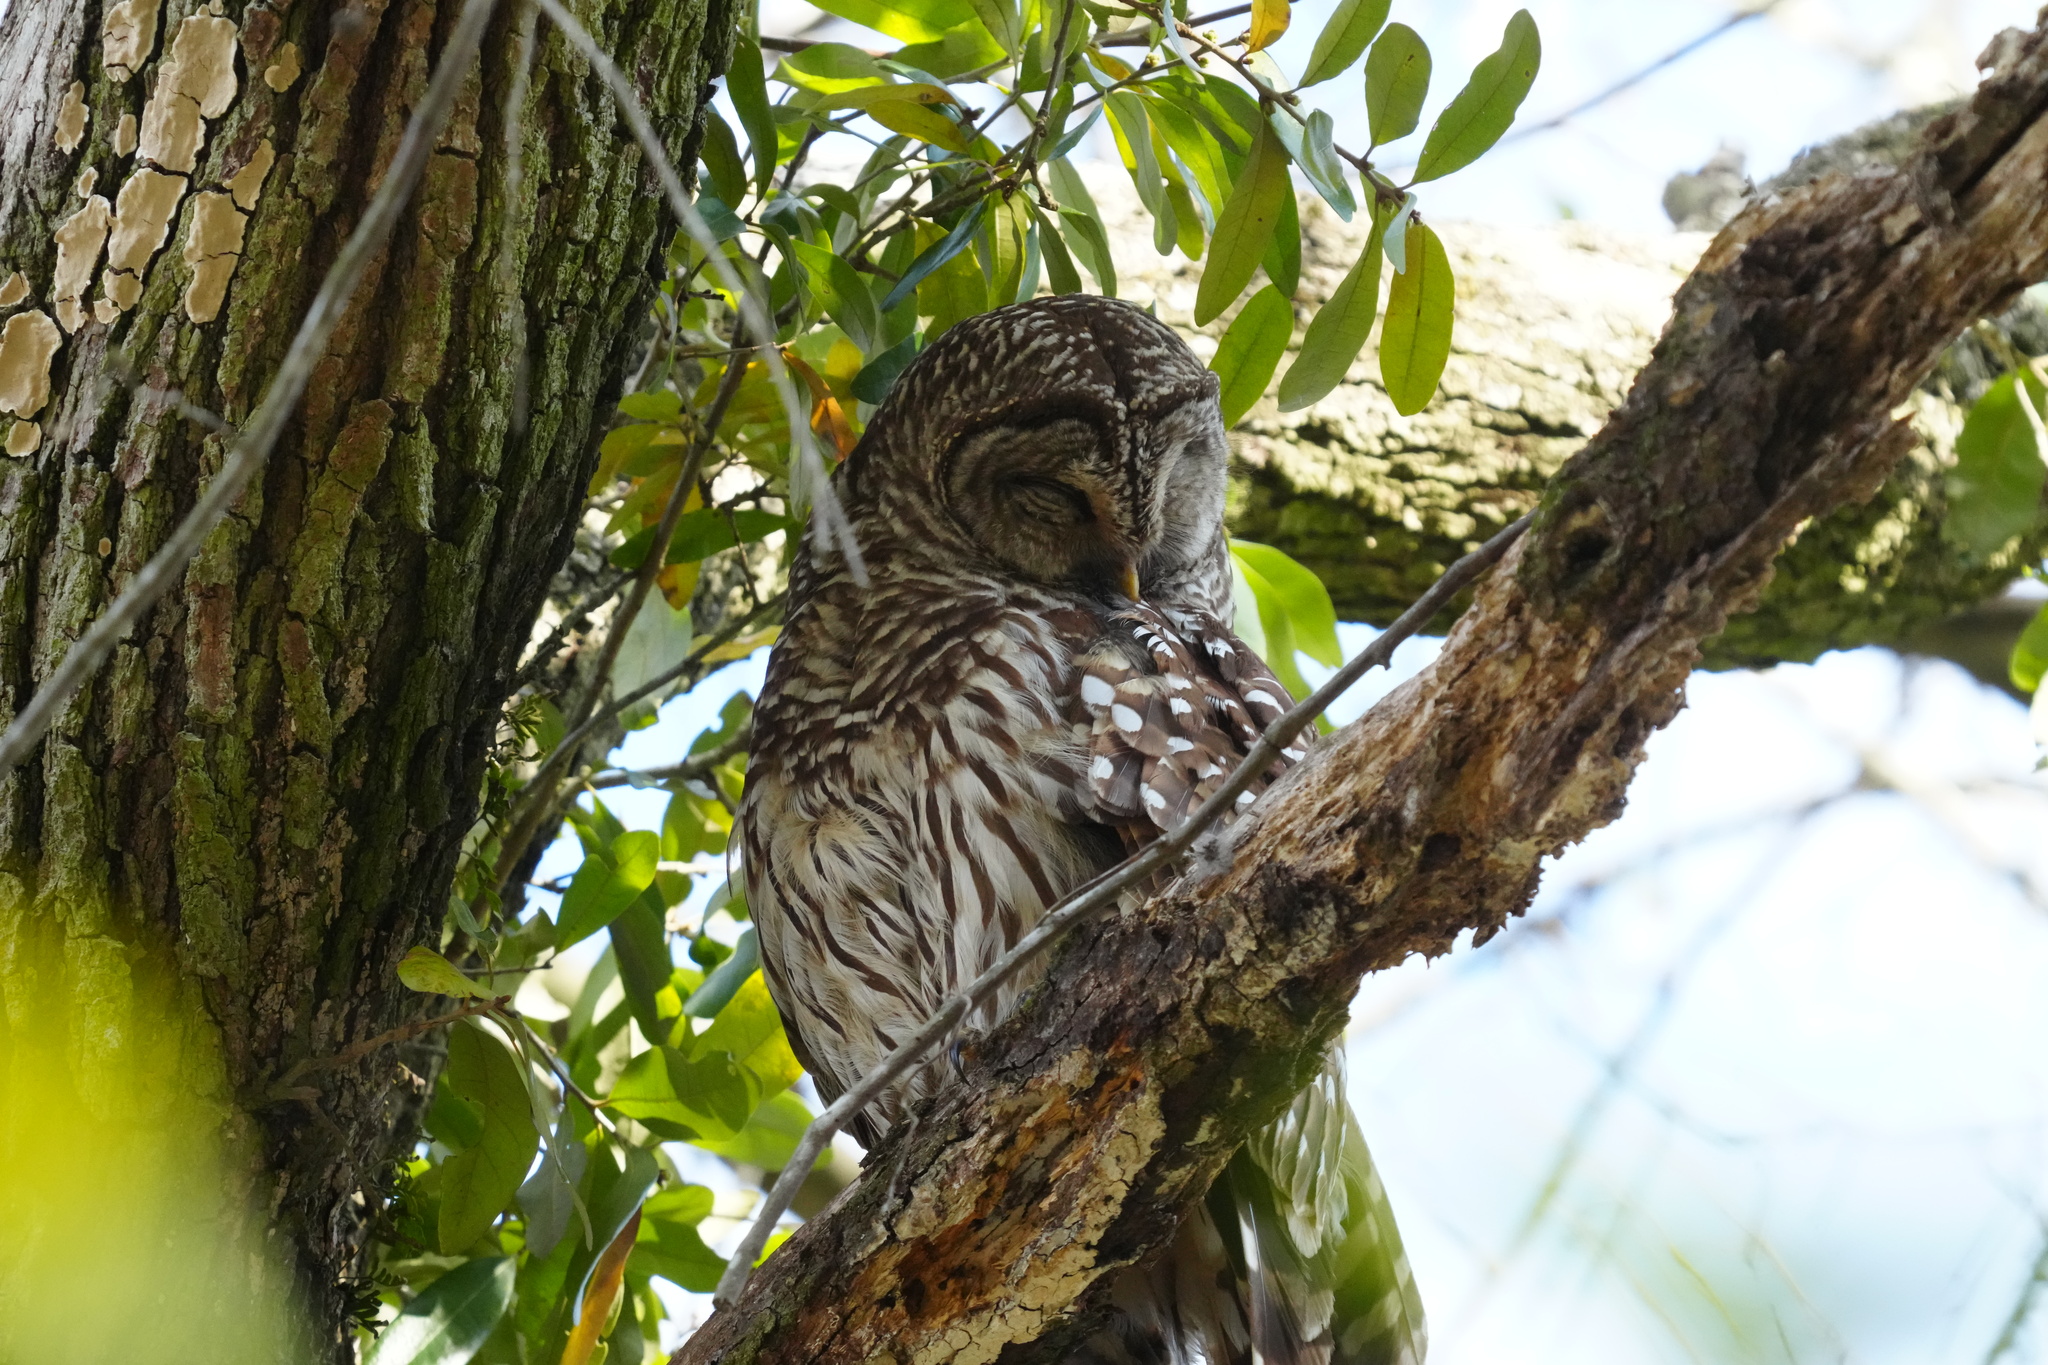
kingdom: Animalia
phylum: Chordata
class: Aves
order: Strigiformes
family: Strigidae
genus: Strix
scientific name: Strix varia
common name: Barred owl
